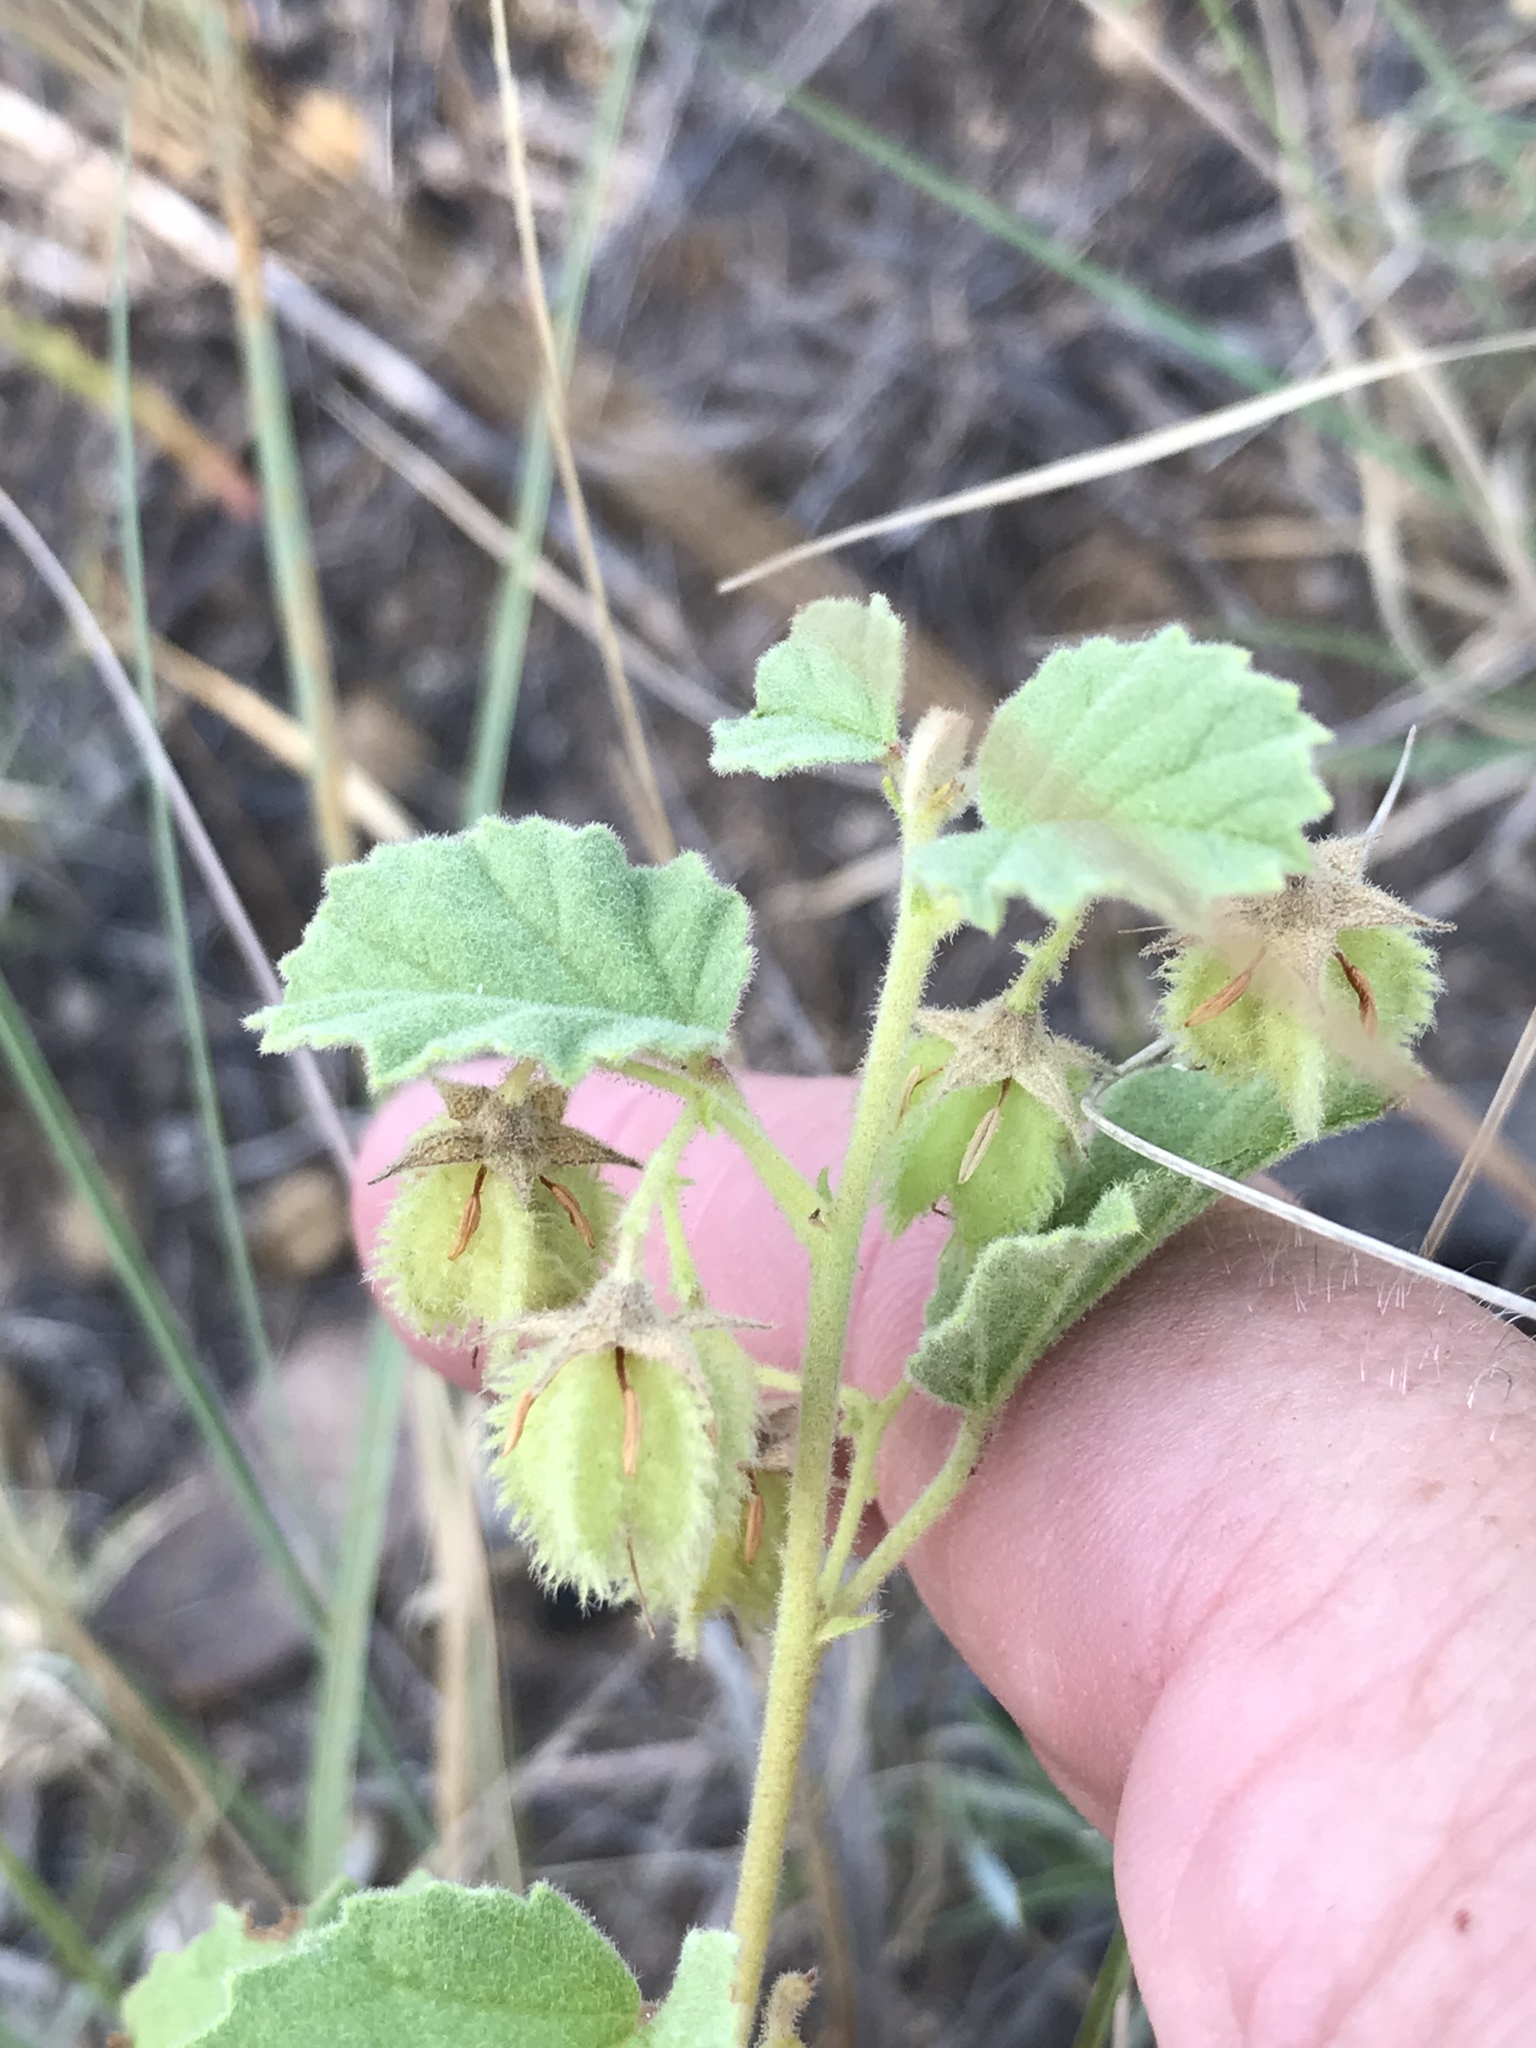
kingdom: Plantae
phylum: Tracheophyta
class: Magnoliopsida
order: Malvales
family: Malvaceae
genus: Hermannia
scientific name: Hermannia texana
